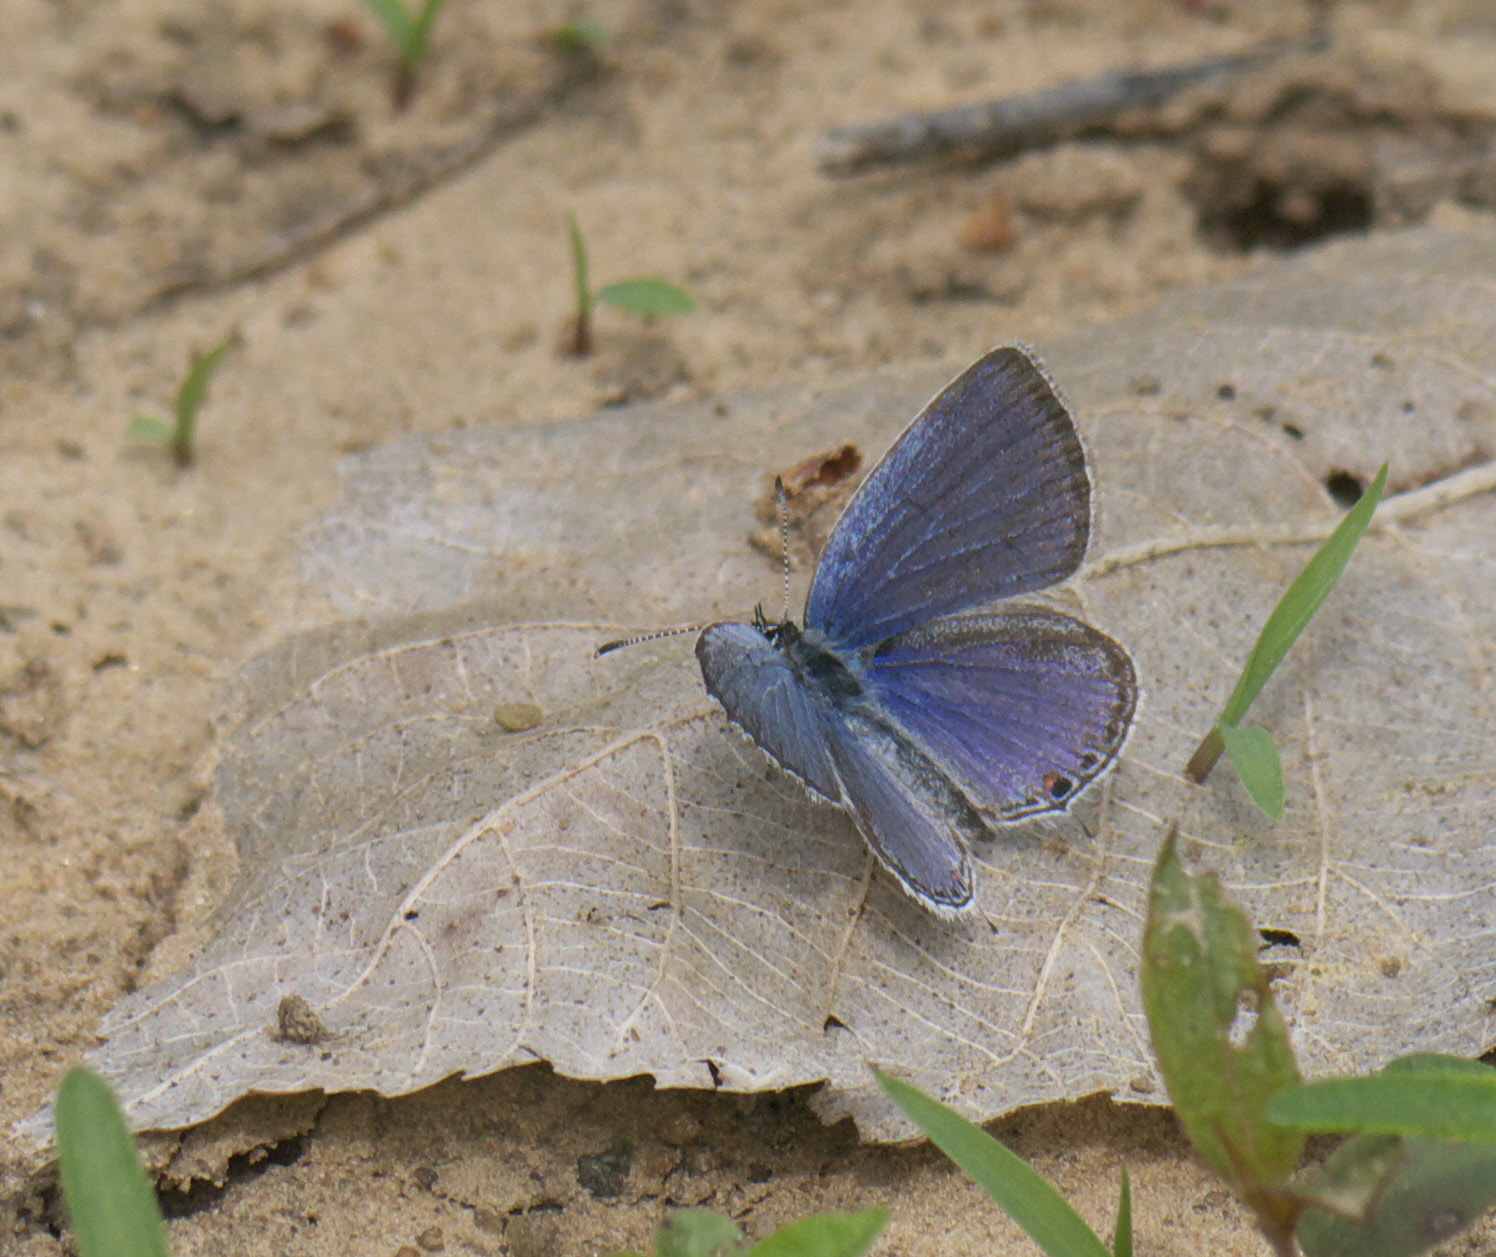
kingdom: Animalia
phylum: Arthropoda
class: Insecta
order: Lepidoptera
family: Lycaenidae
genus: Elkalyce
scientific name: Elkalyce comyntas
